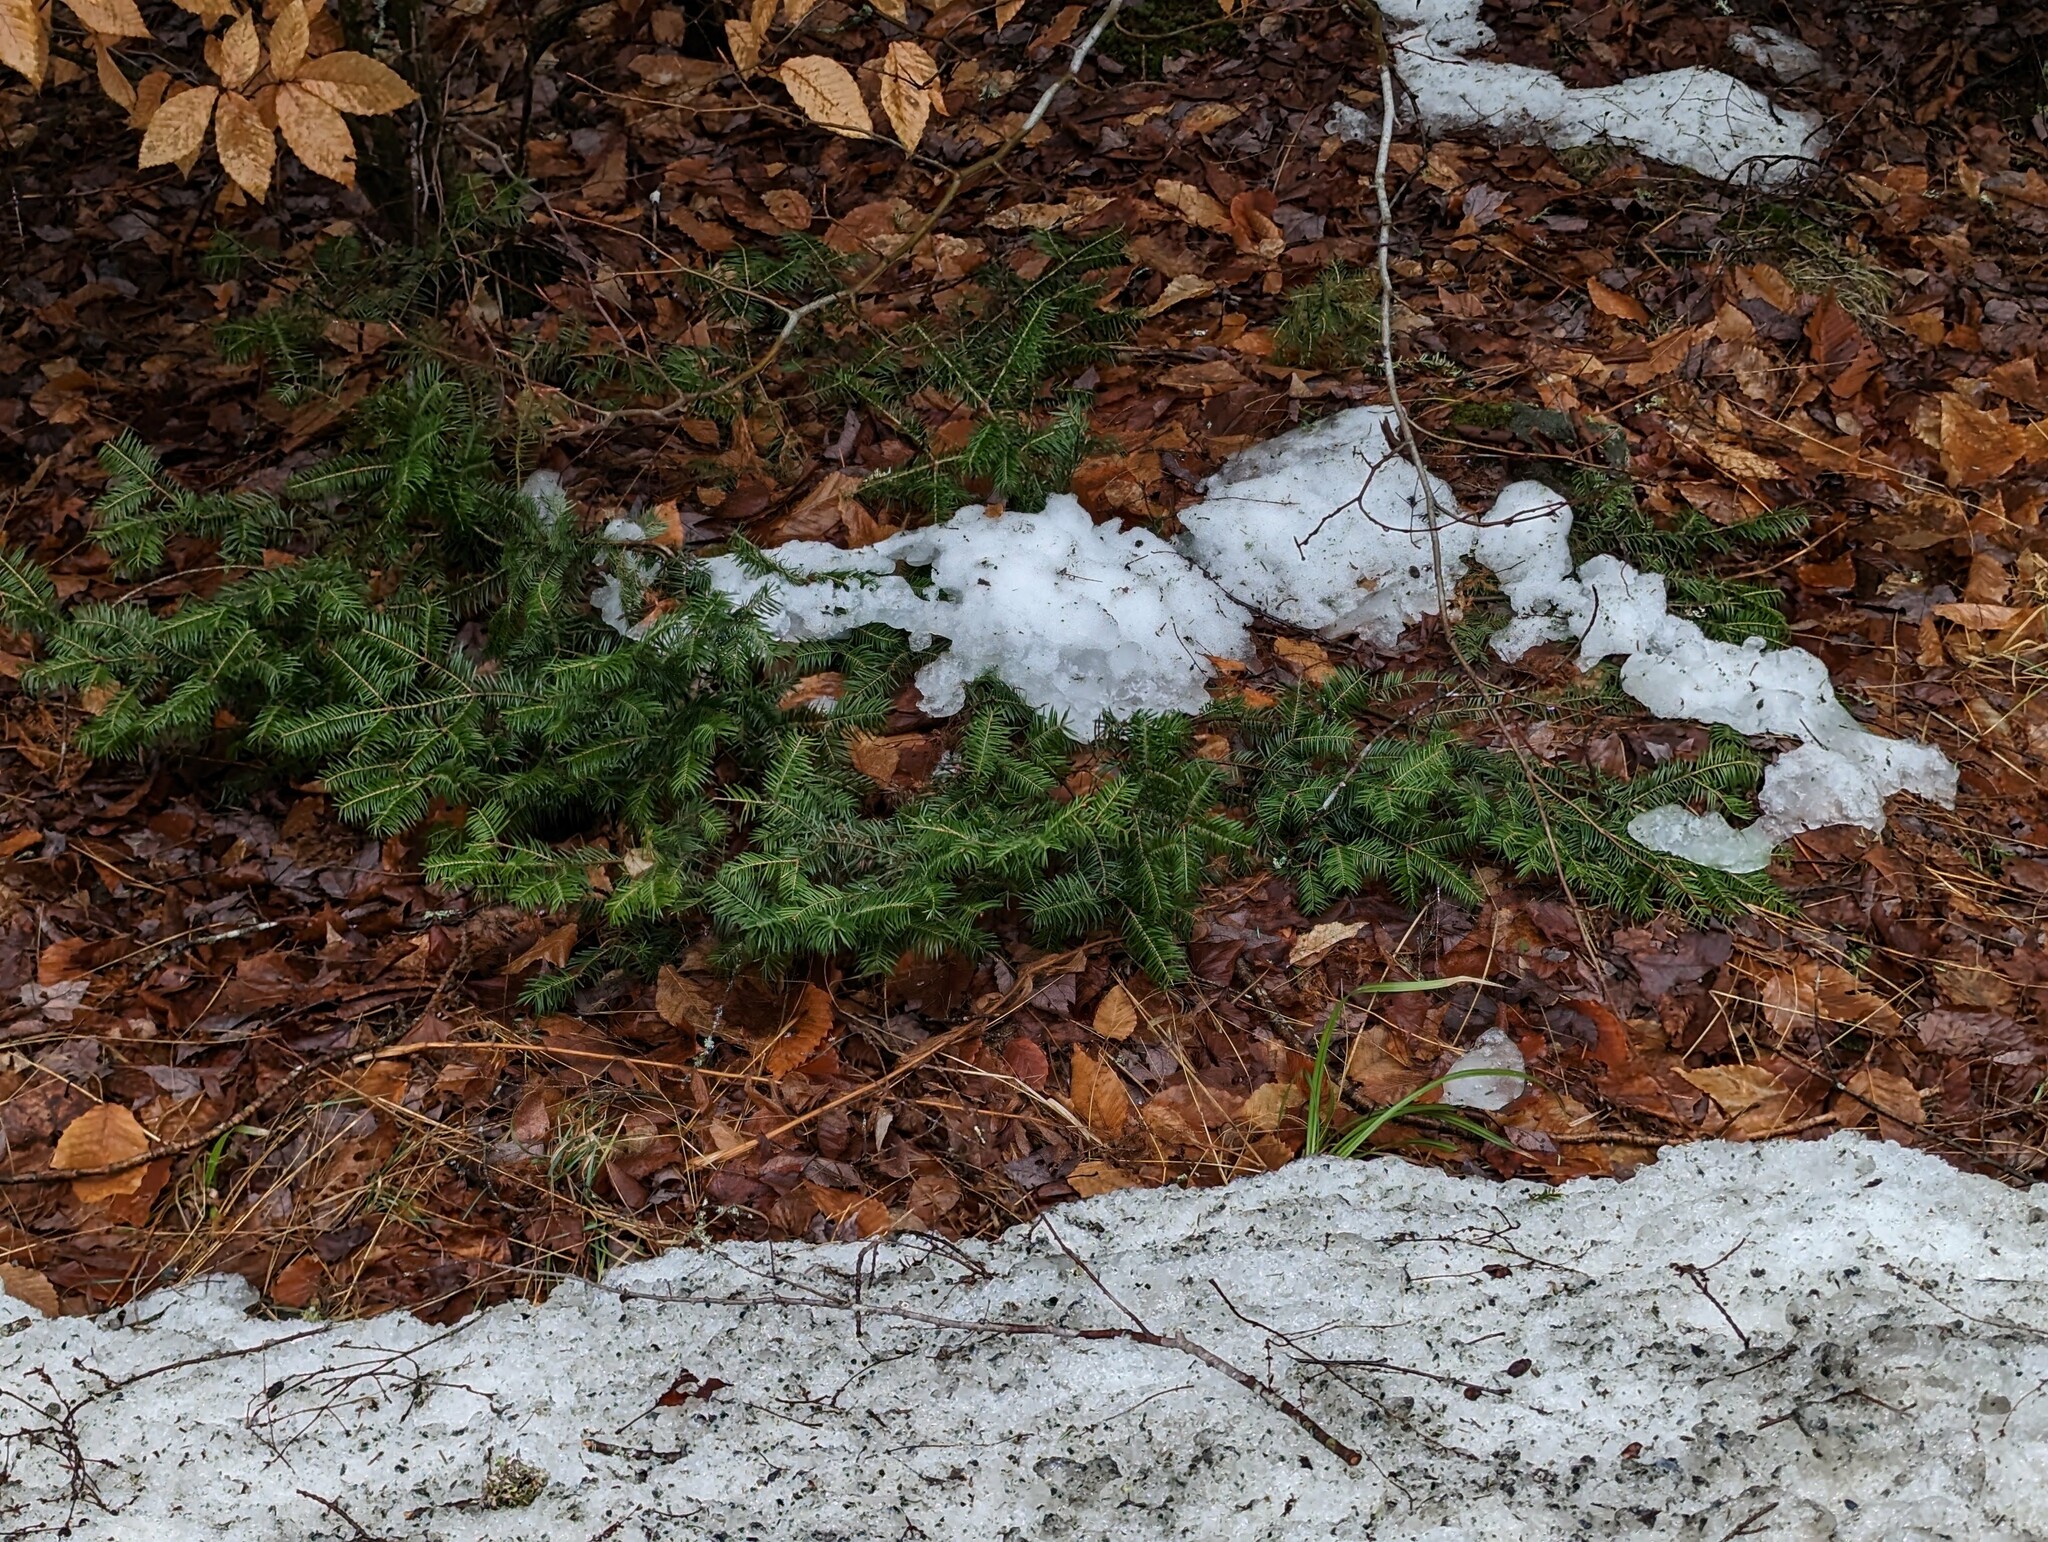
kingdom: Plantae
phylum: Tracheophyta
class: Pinopsida
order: Pinales
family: Pinaceae
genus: Abies
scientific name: Abies balsamea
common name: Balsam fir
